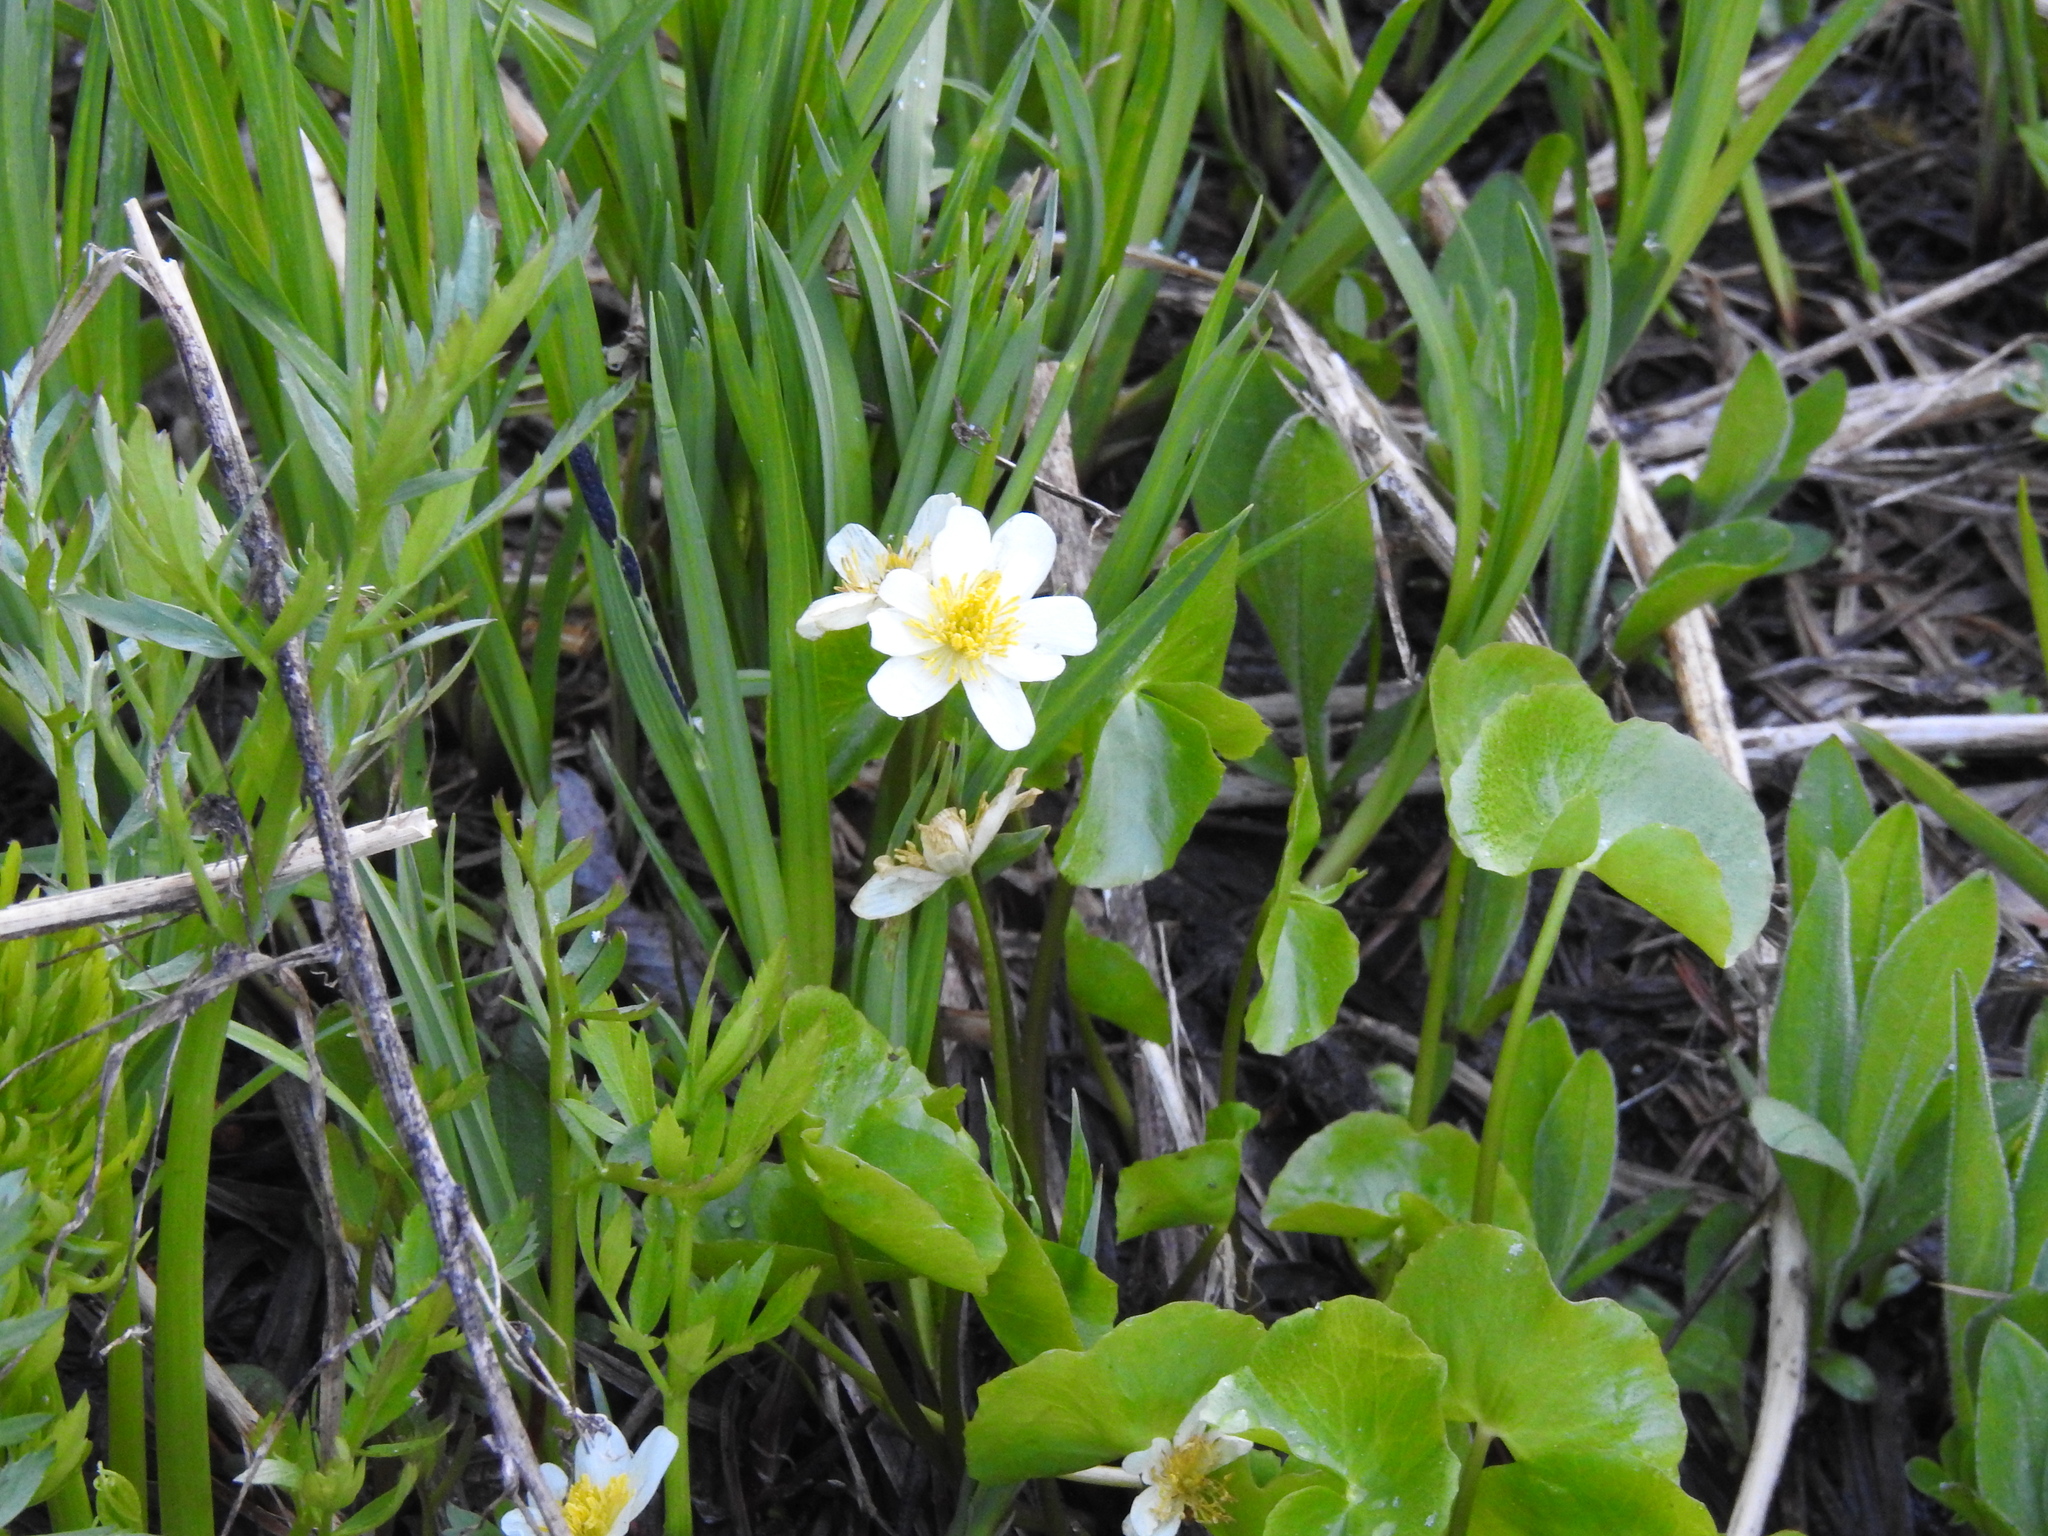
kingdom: Plantae
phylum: Tracheophyta
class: Magnoliopsida
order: Ranunculales
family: Ranunculaceae
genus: Caltha
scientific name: Caltha leptosepala
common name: Elkslip
